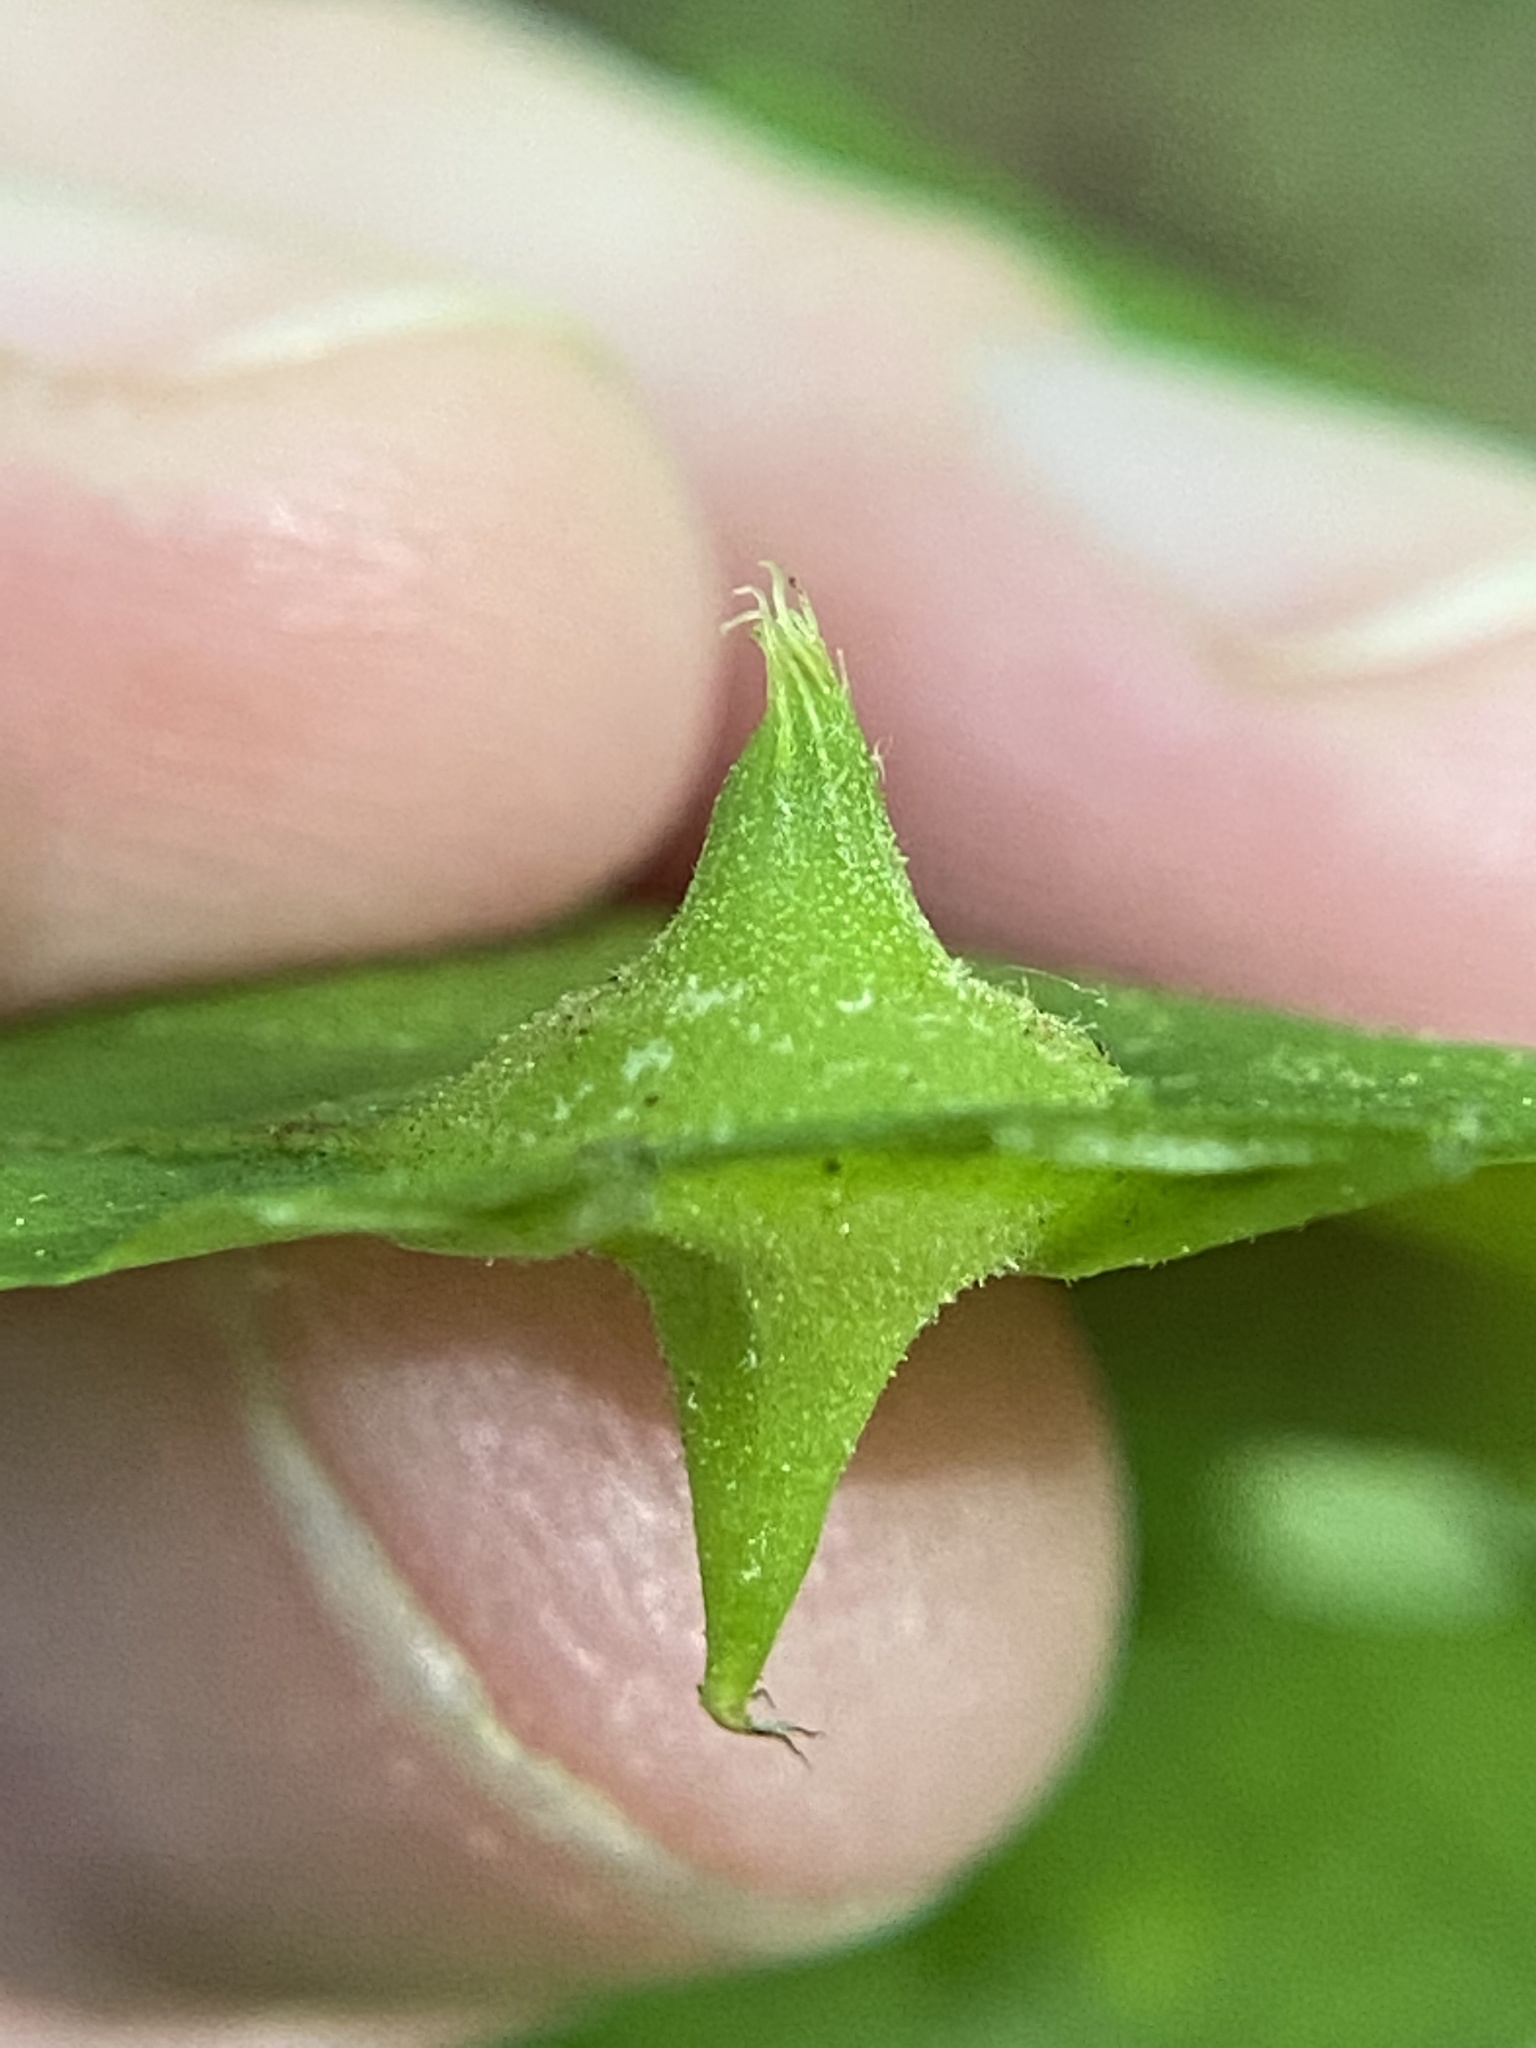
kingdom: Animalia
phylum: Arthropoda
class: Insecta
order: Hemiptera
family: Phylloxeridae
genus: Phylloxera
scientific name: Phylloxera caryaesepta
